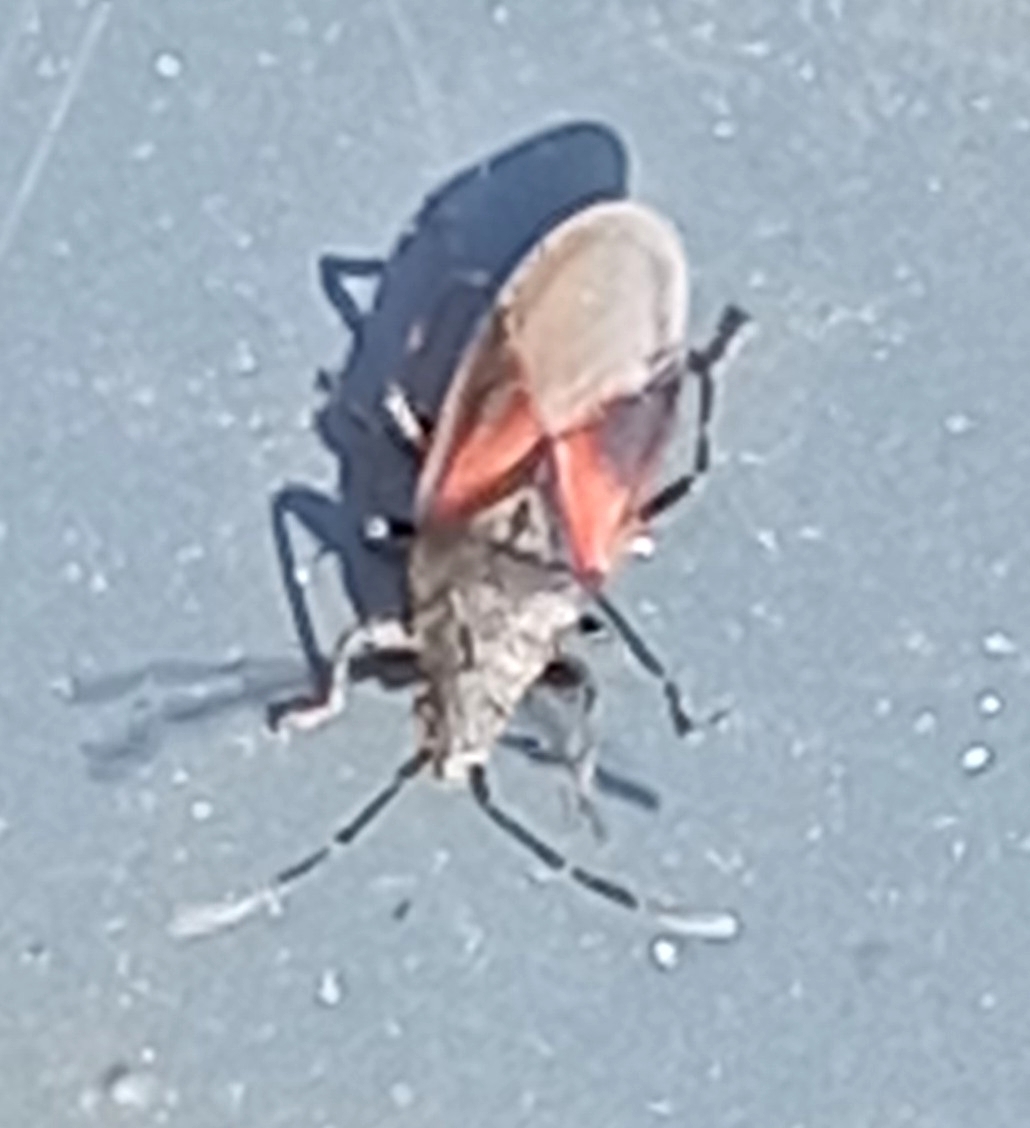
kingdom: Animalia
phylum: Arthropoda
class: Insecta
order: Hemiptera
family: Oxycarenidae
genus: Oxycarenus
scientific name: Oxycarenus lavaterae
